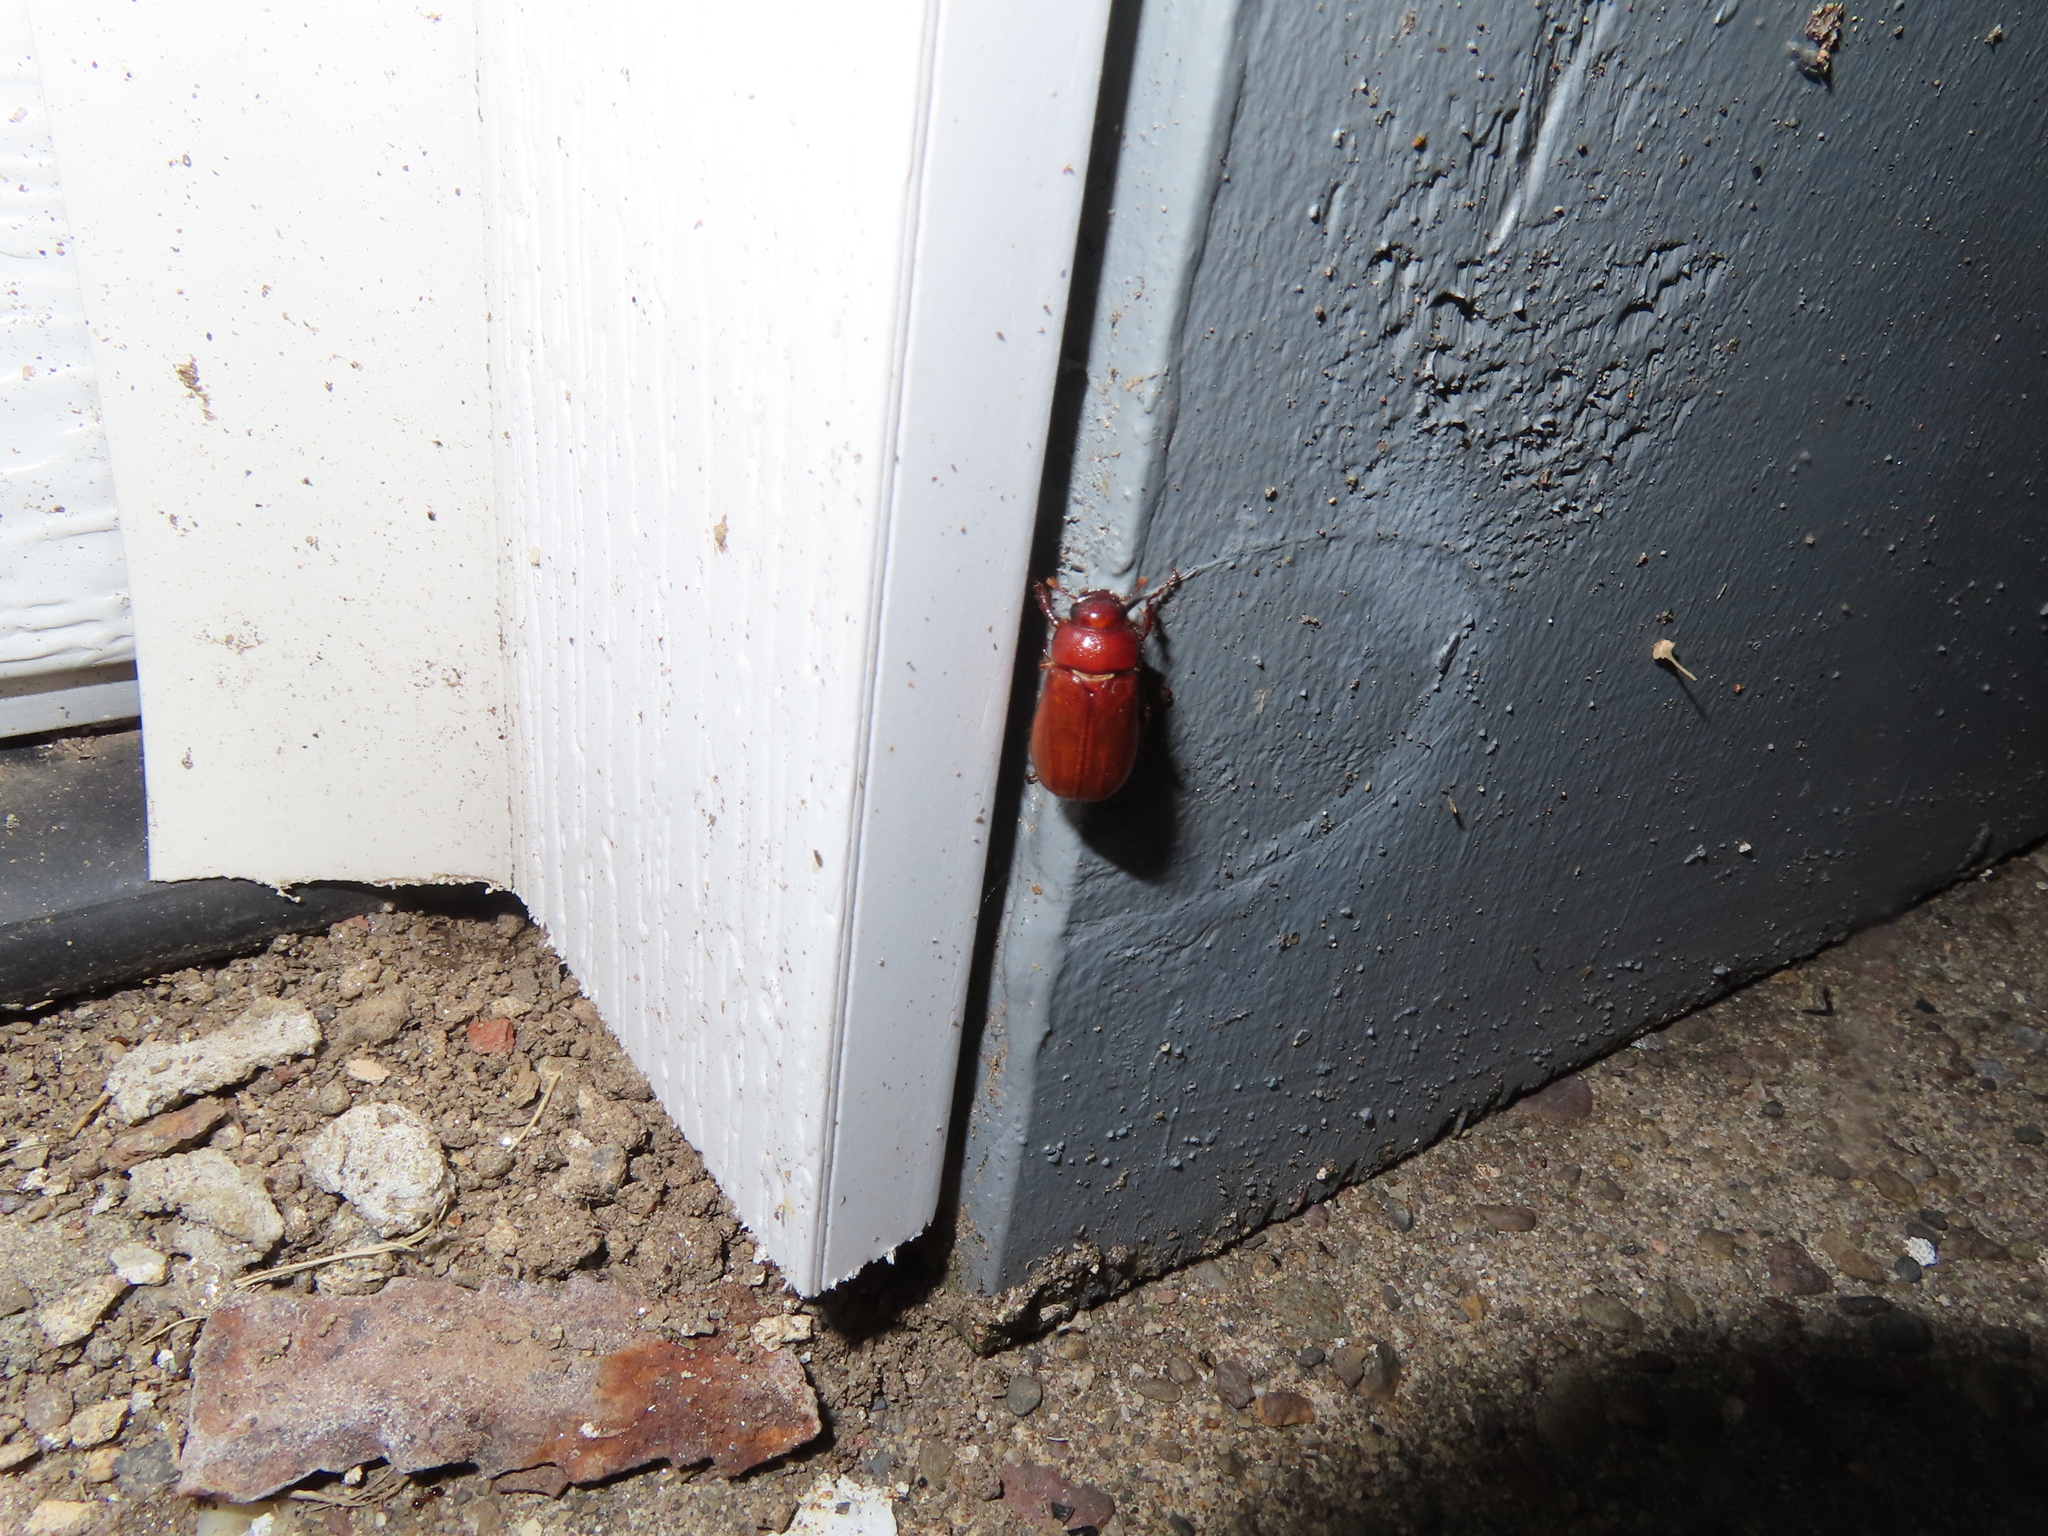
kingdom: Animalia
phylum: Arthropoda
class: Insecta
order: Coleoptera
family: Scarabaeidae
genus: Maladera
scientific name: Maladera formosae
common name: Asiatic garden beetle
